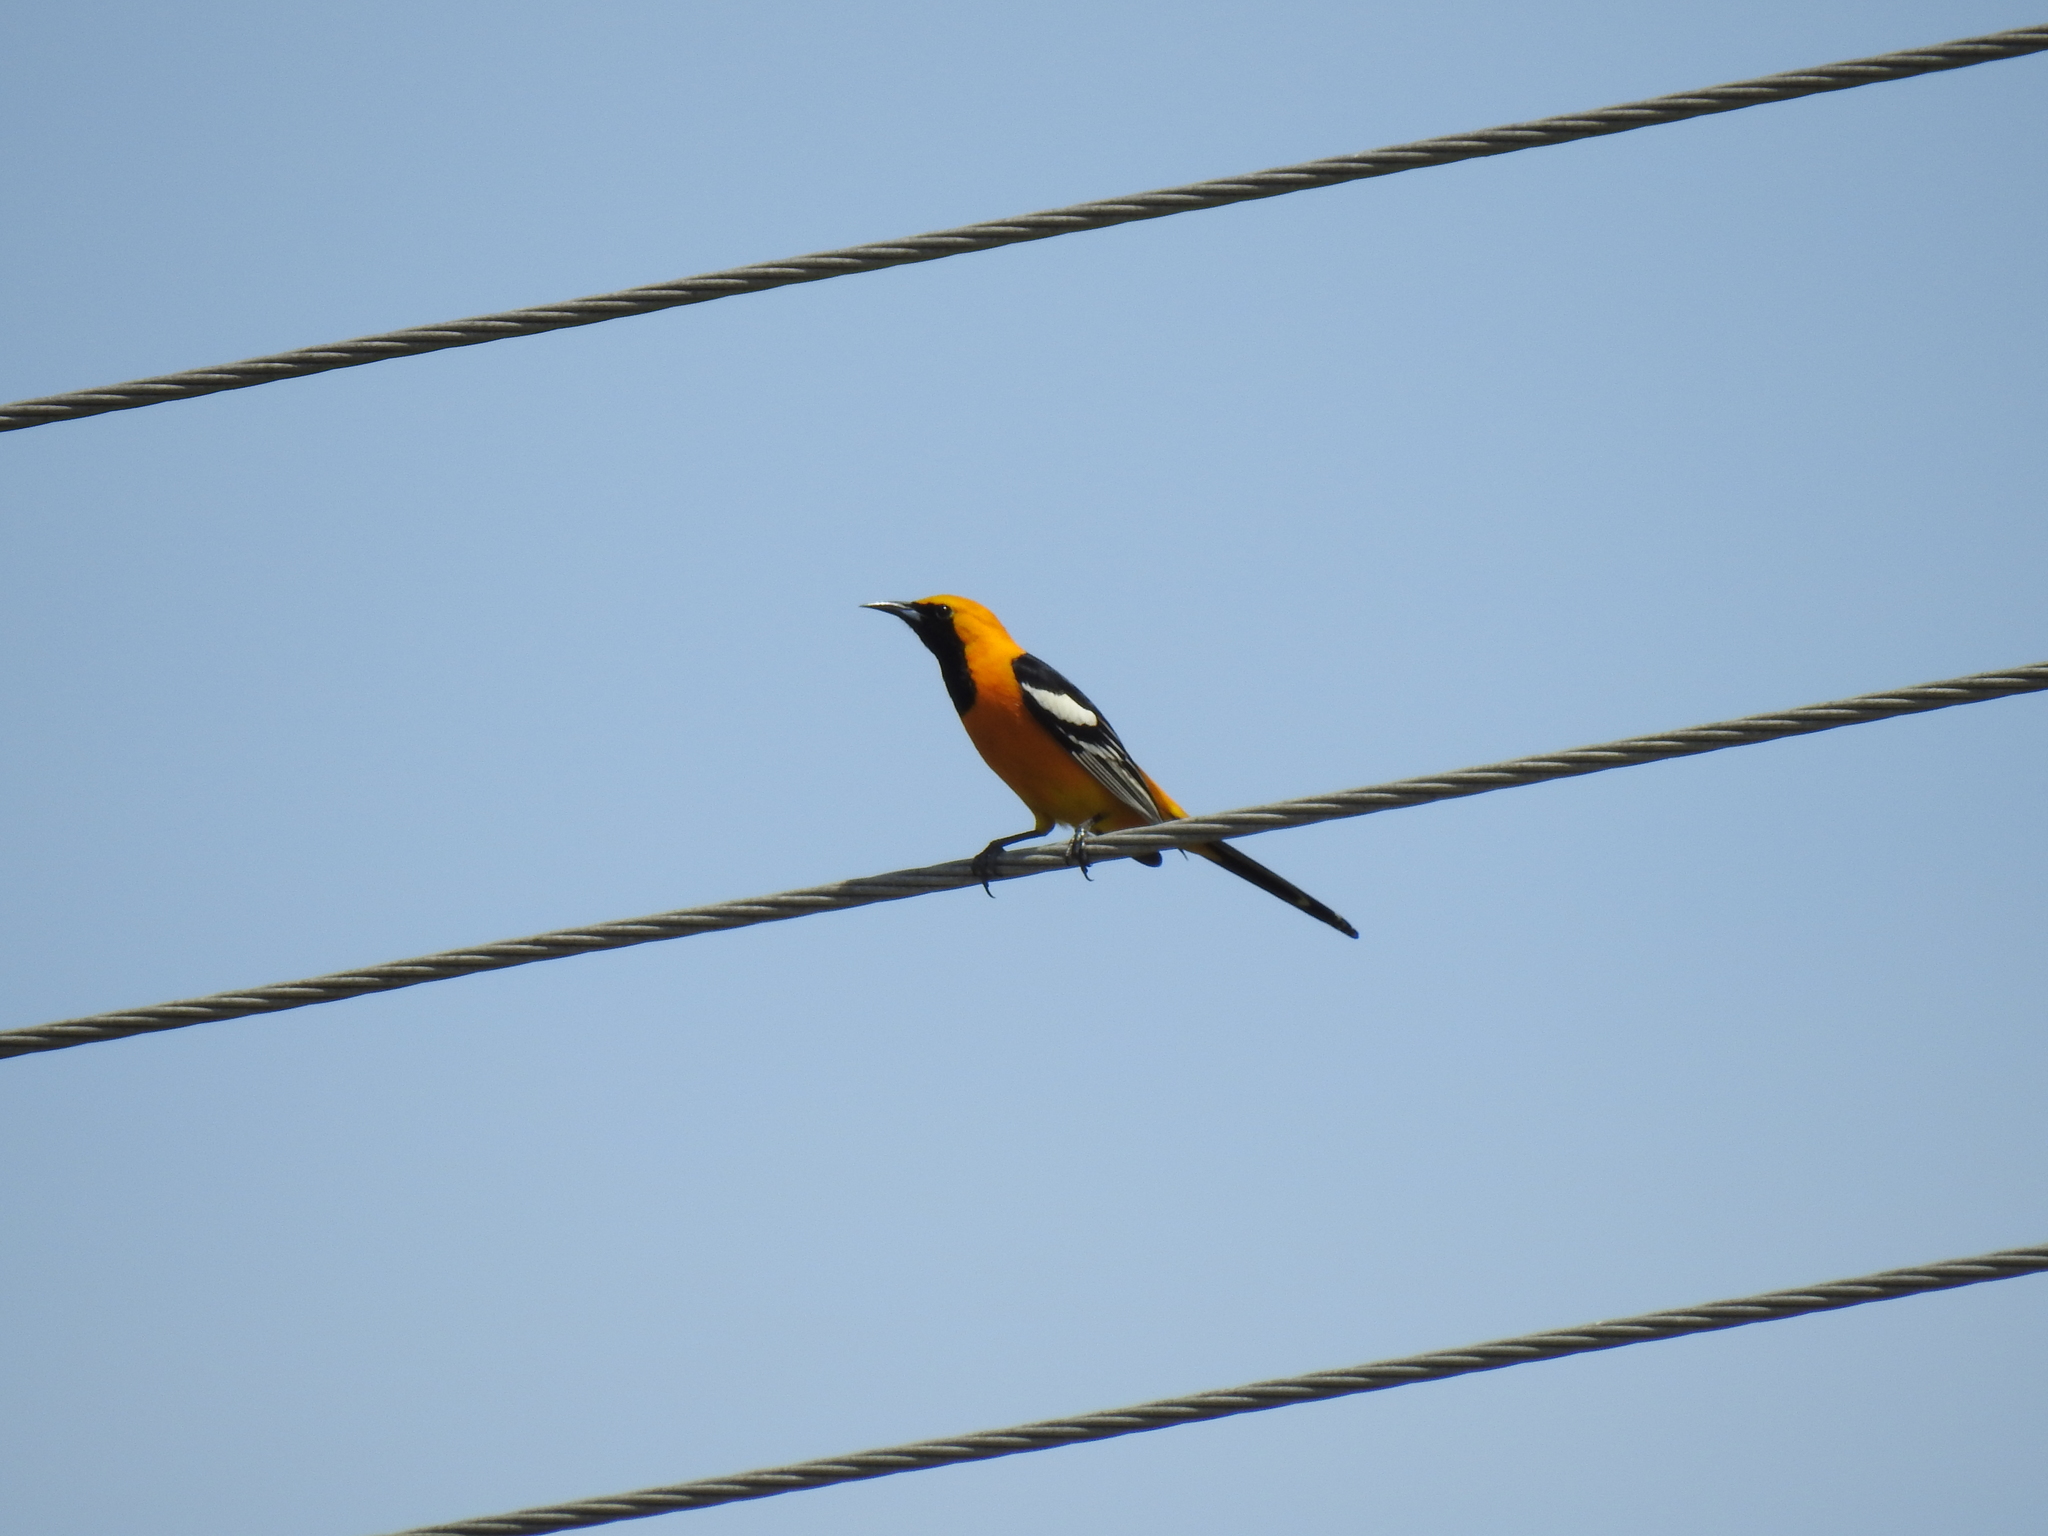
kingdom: Animalia
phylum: Chordata
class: Aves
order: Passeriformes
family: Icteridae
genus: Icterus
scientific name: Icterus cucullatus
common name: Hooded oriole
